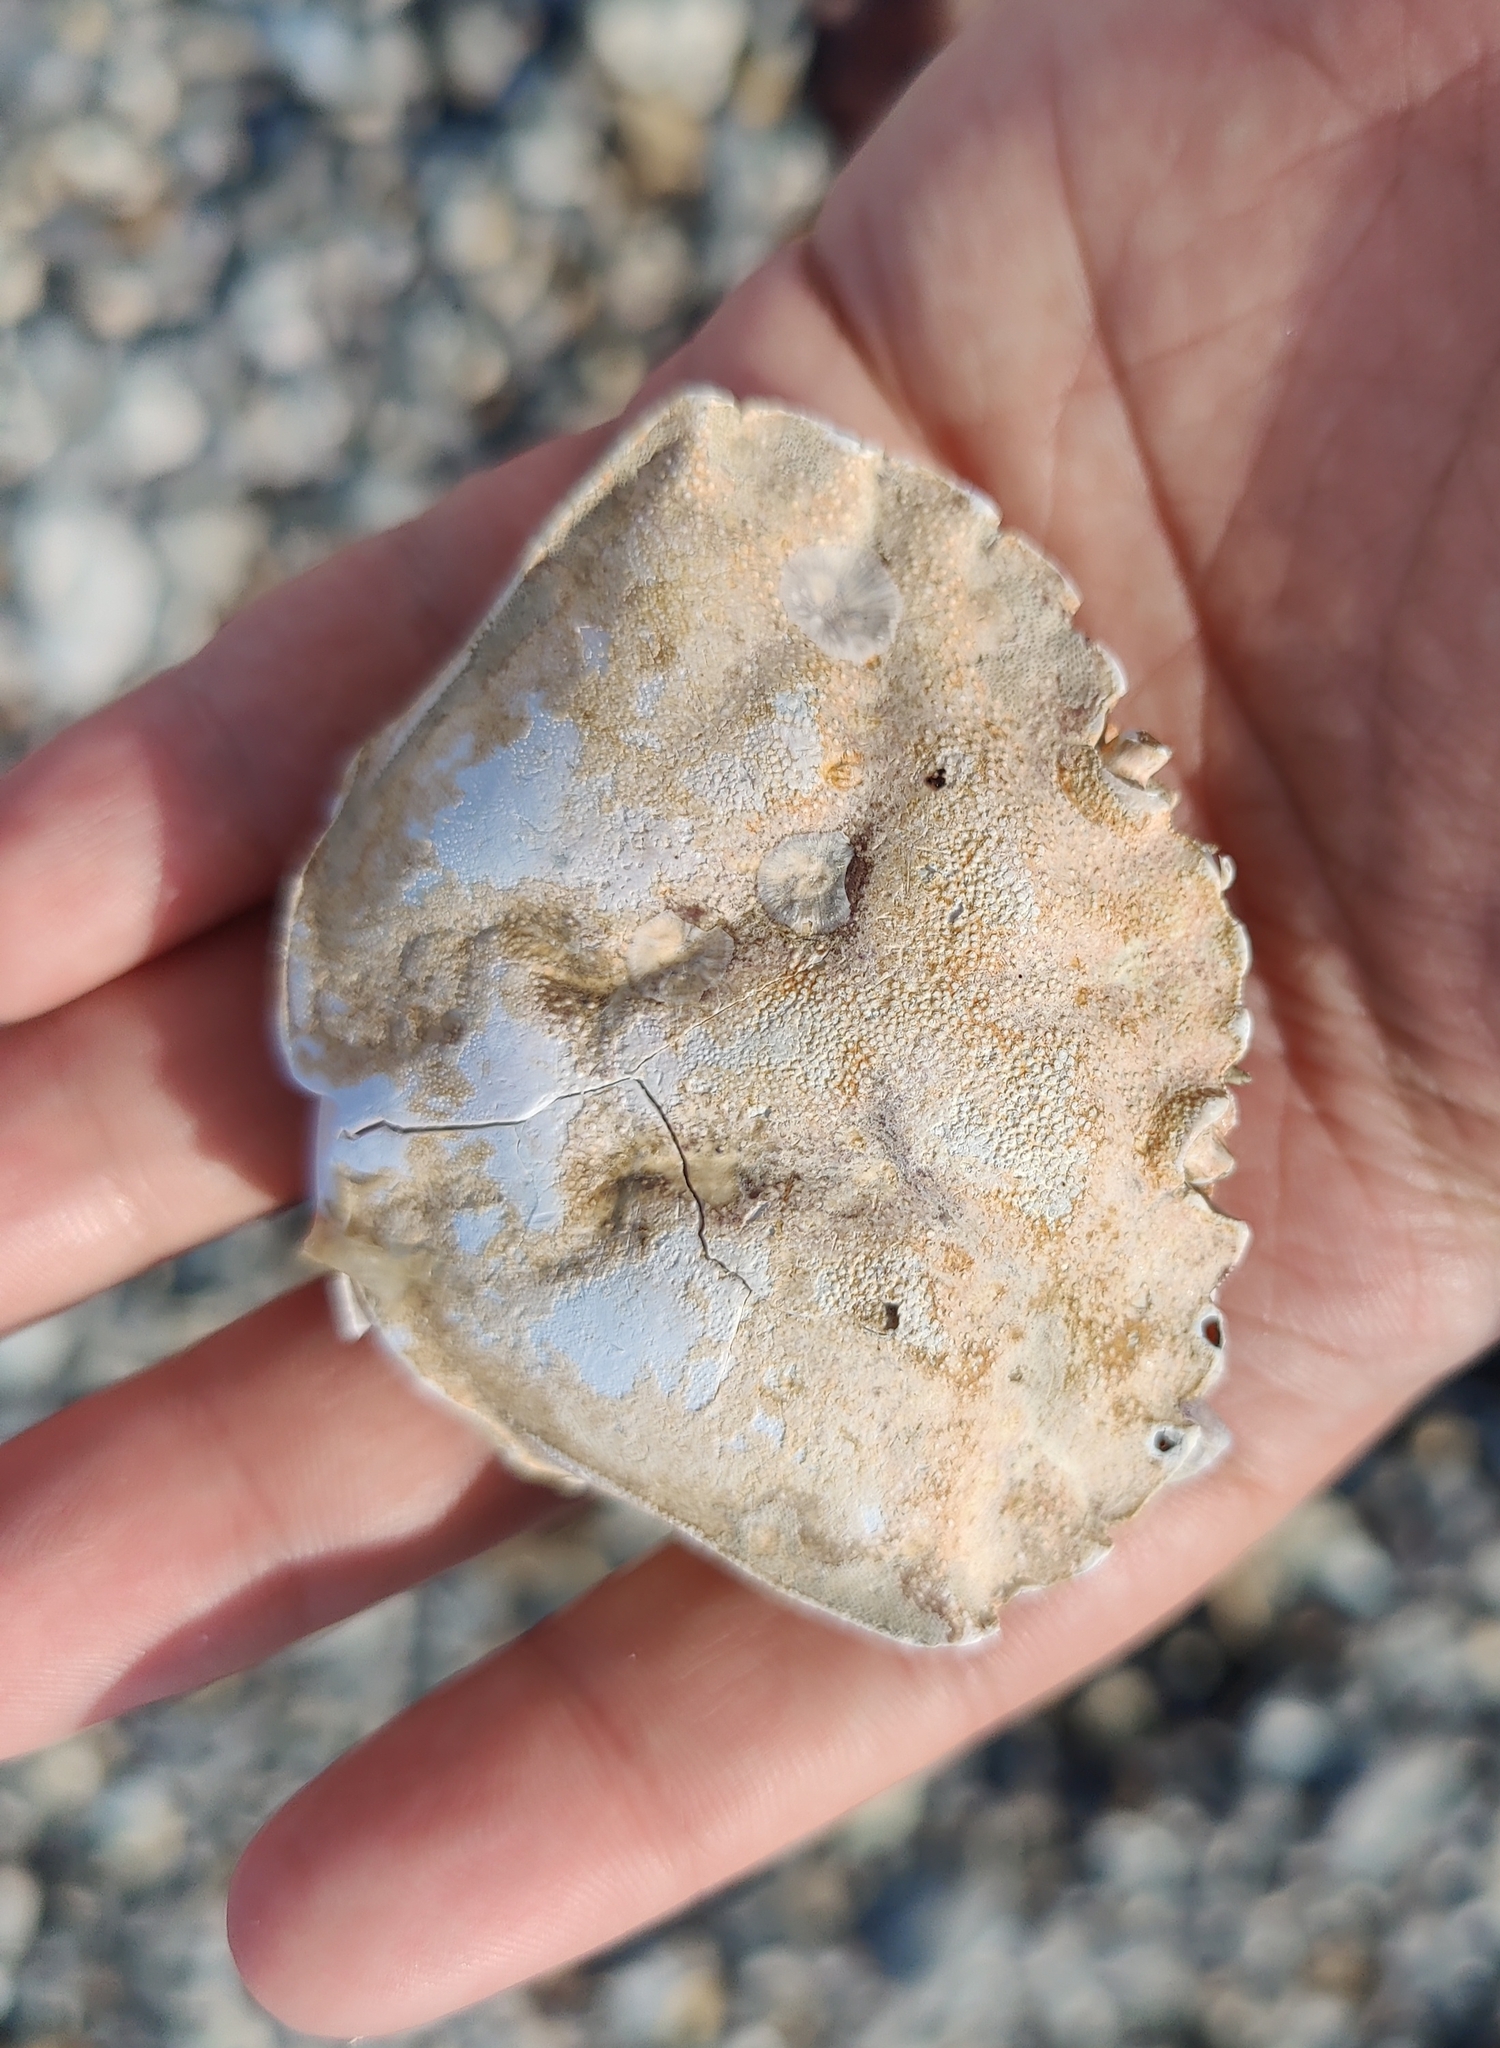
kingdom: Animalia
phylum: Arthropoda
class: Malacostraca
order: Decapoda
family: Carcinidae
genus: Carcinus
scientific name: Carcinus maenas
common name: European green crab
